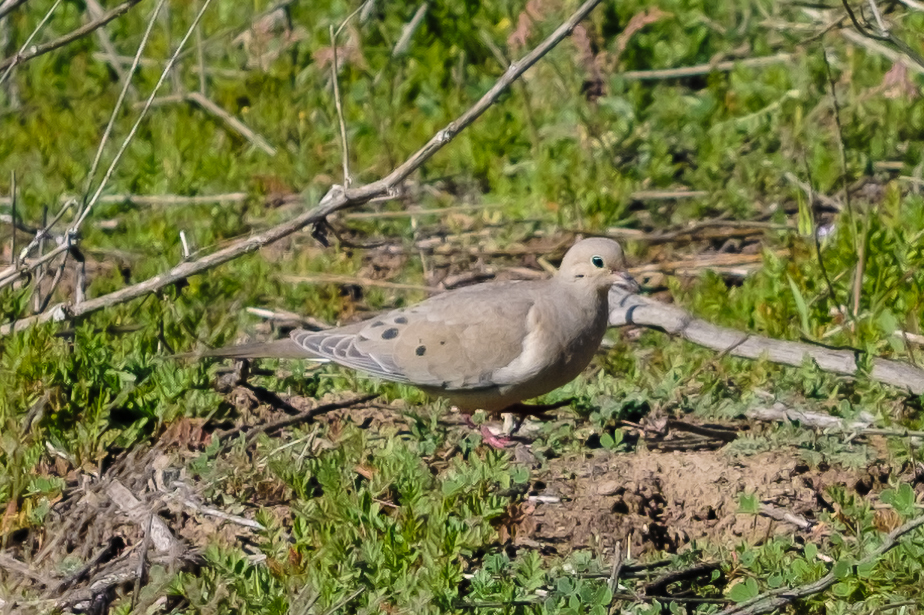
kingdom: Animalia
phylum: Chordata
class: Aves
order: Columbiformes
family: Columbidae
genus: Zenaida
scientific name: Zenaida macroura
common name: Mourning dove
